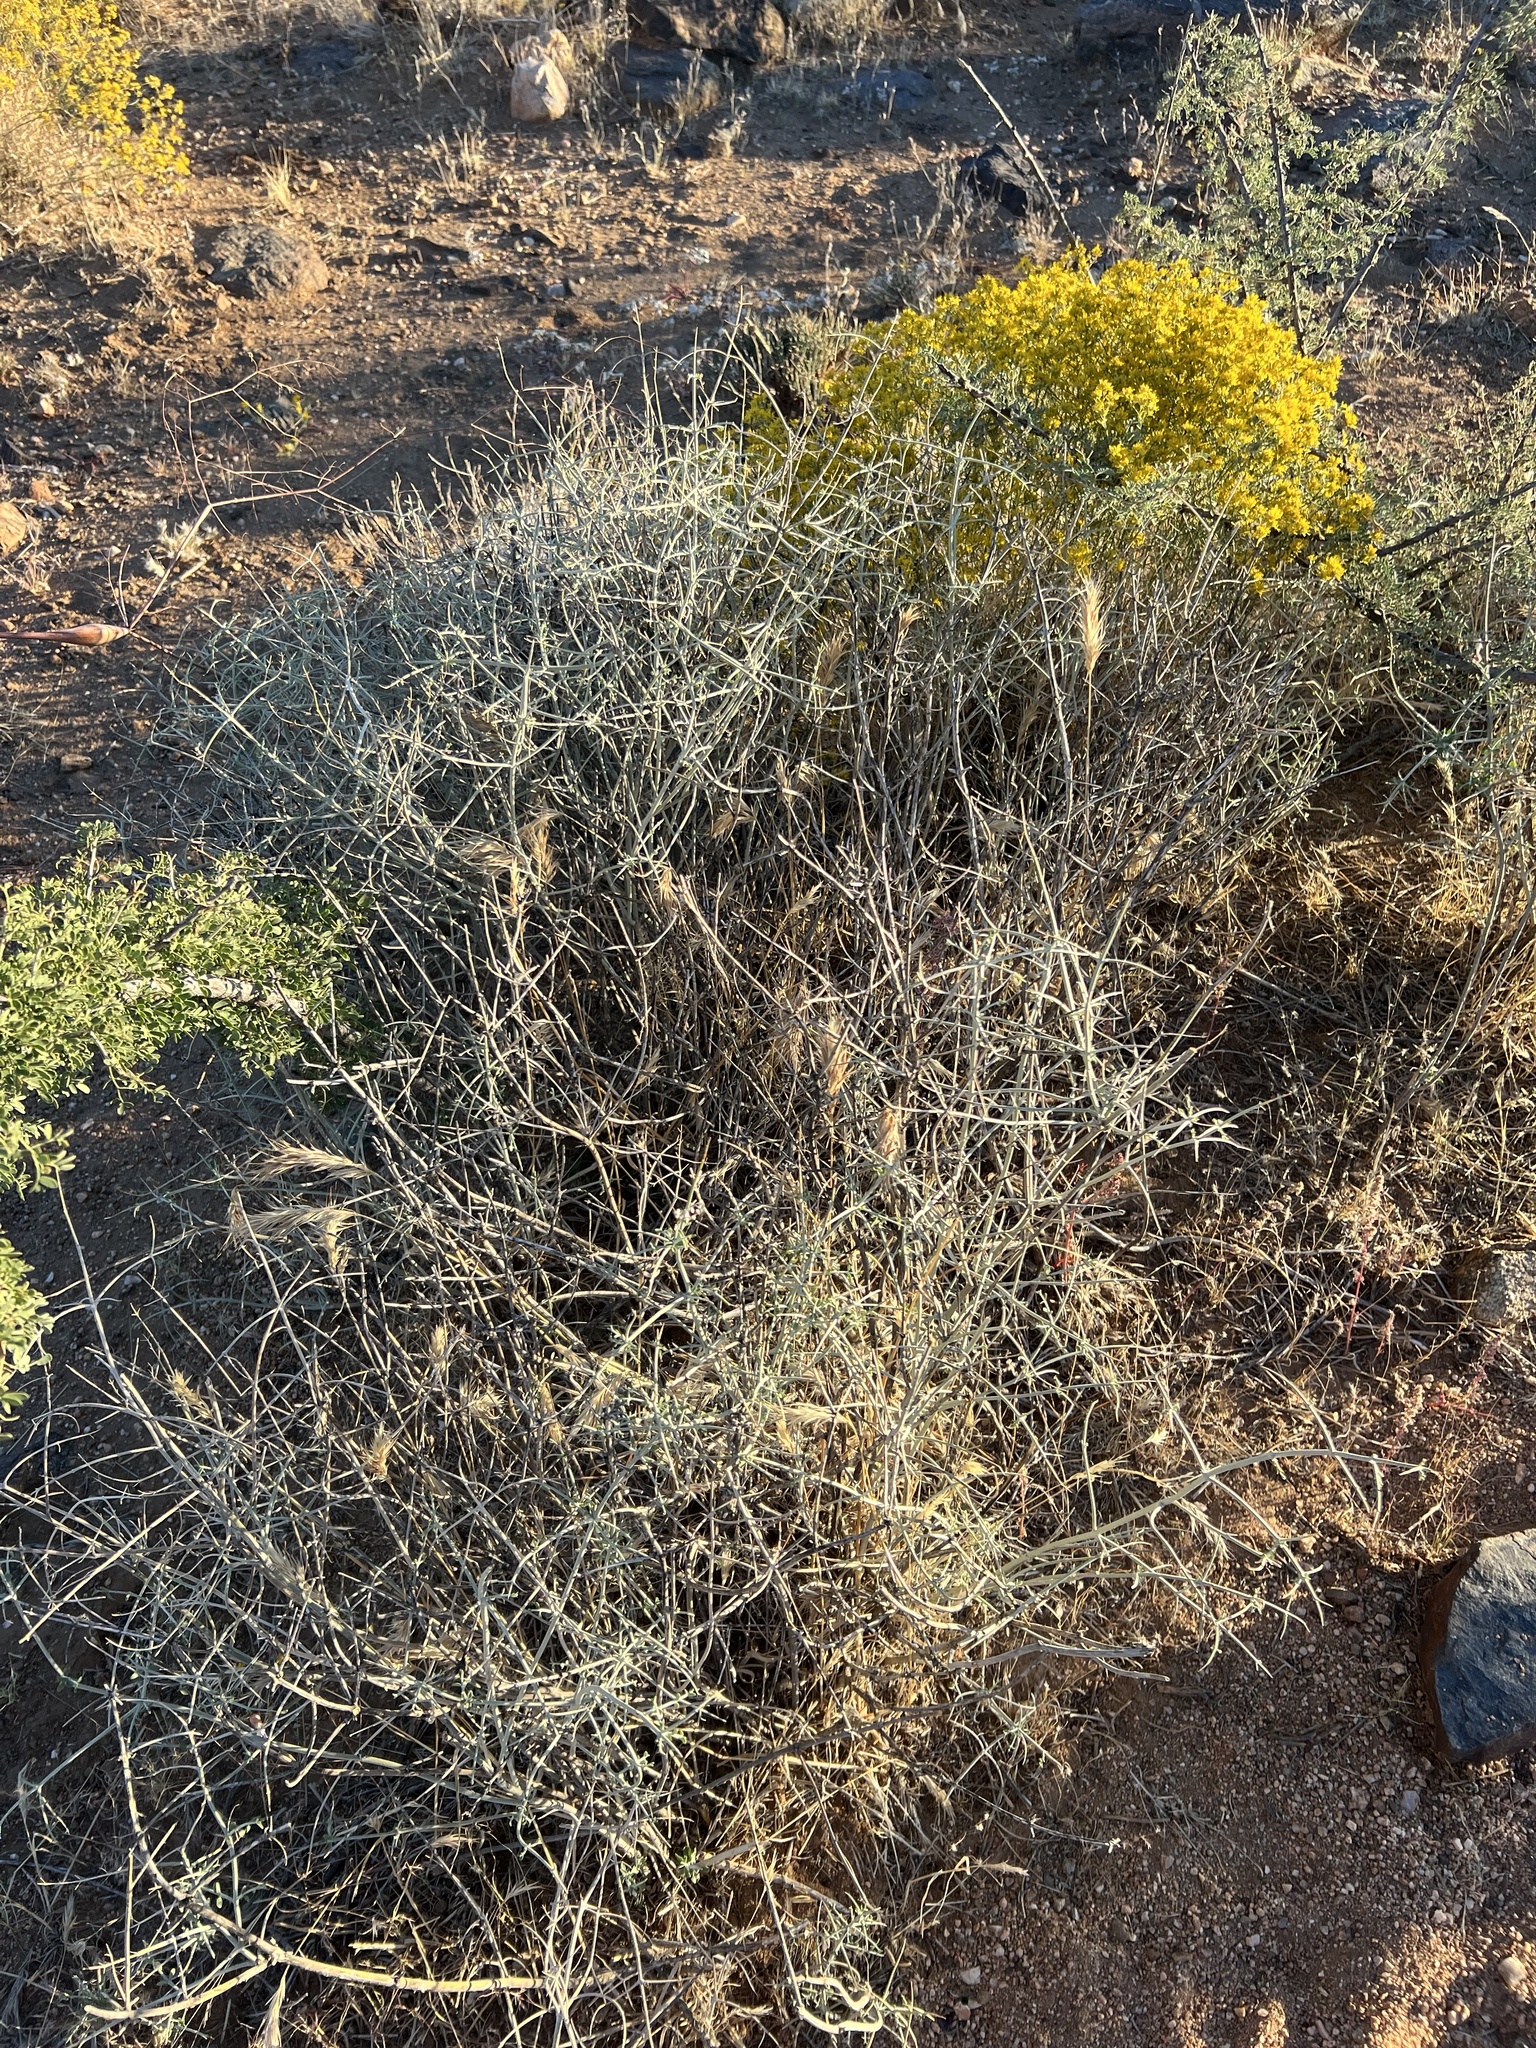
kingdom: Plantae
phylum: Tracheophyta
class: Magnoliopsida
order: Lamiales
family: Lamiaceae
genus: Scutellaria
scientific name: Scutellaria mexicana
